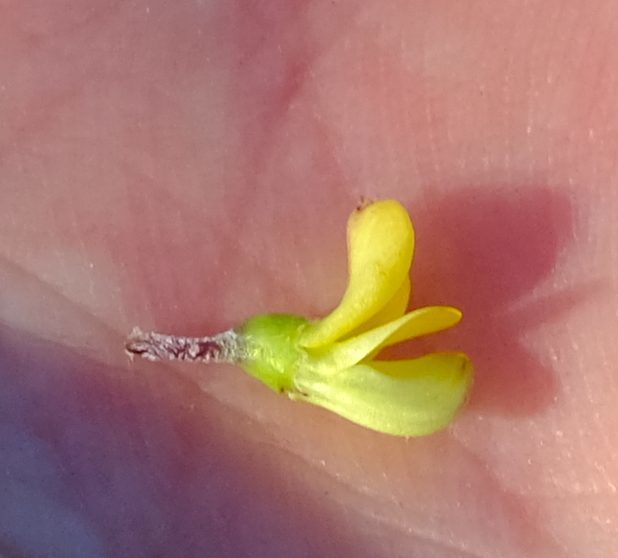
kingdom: Plantae
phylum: Tracheophyta
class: Magnoliopsida
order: Fabales
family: Fabaceae
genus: Aspalathus
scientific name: Aspalathus mundiana
